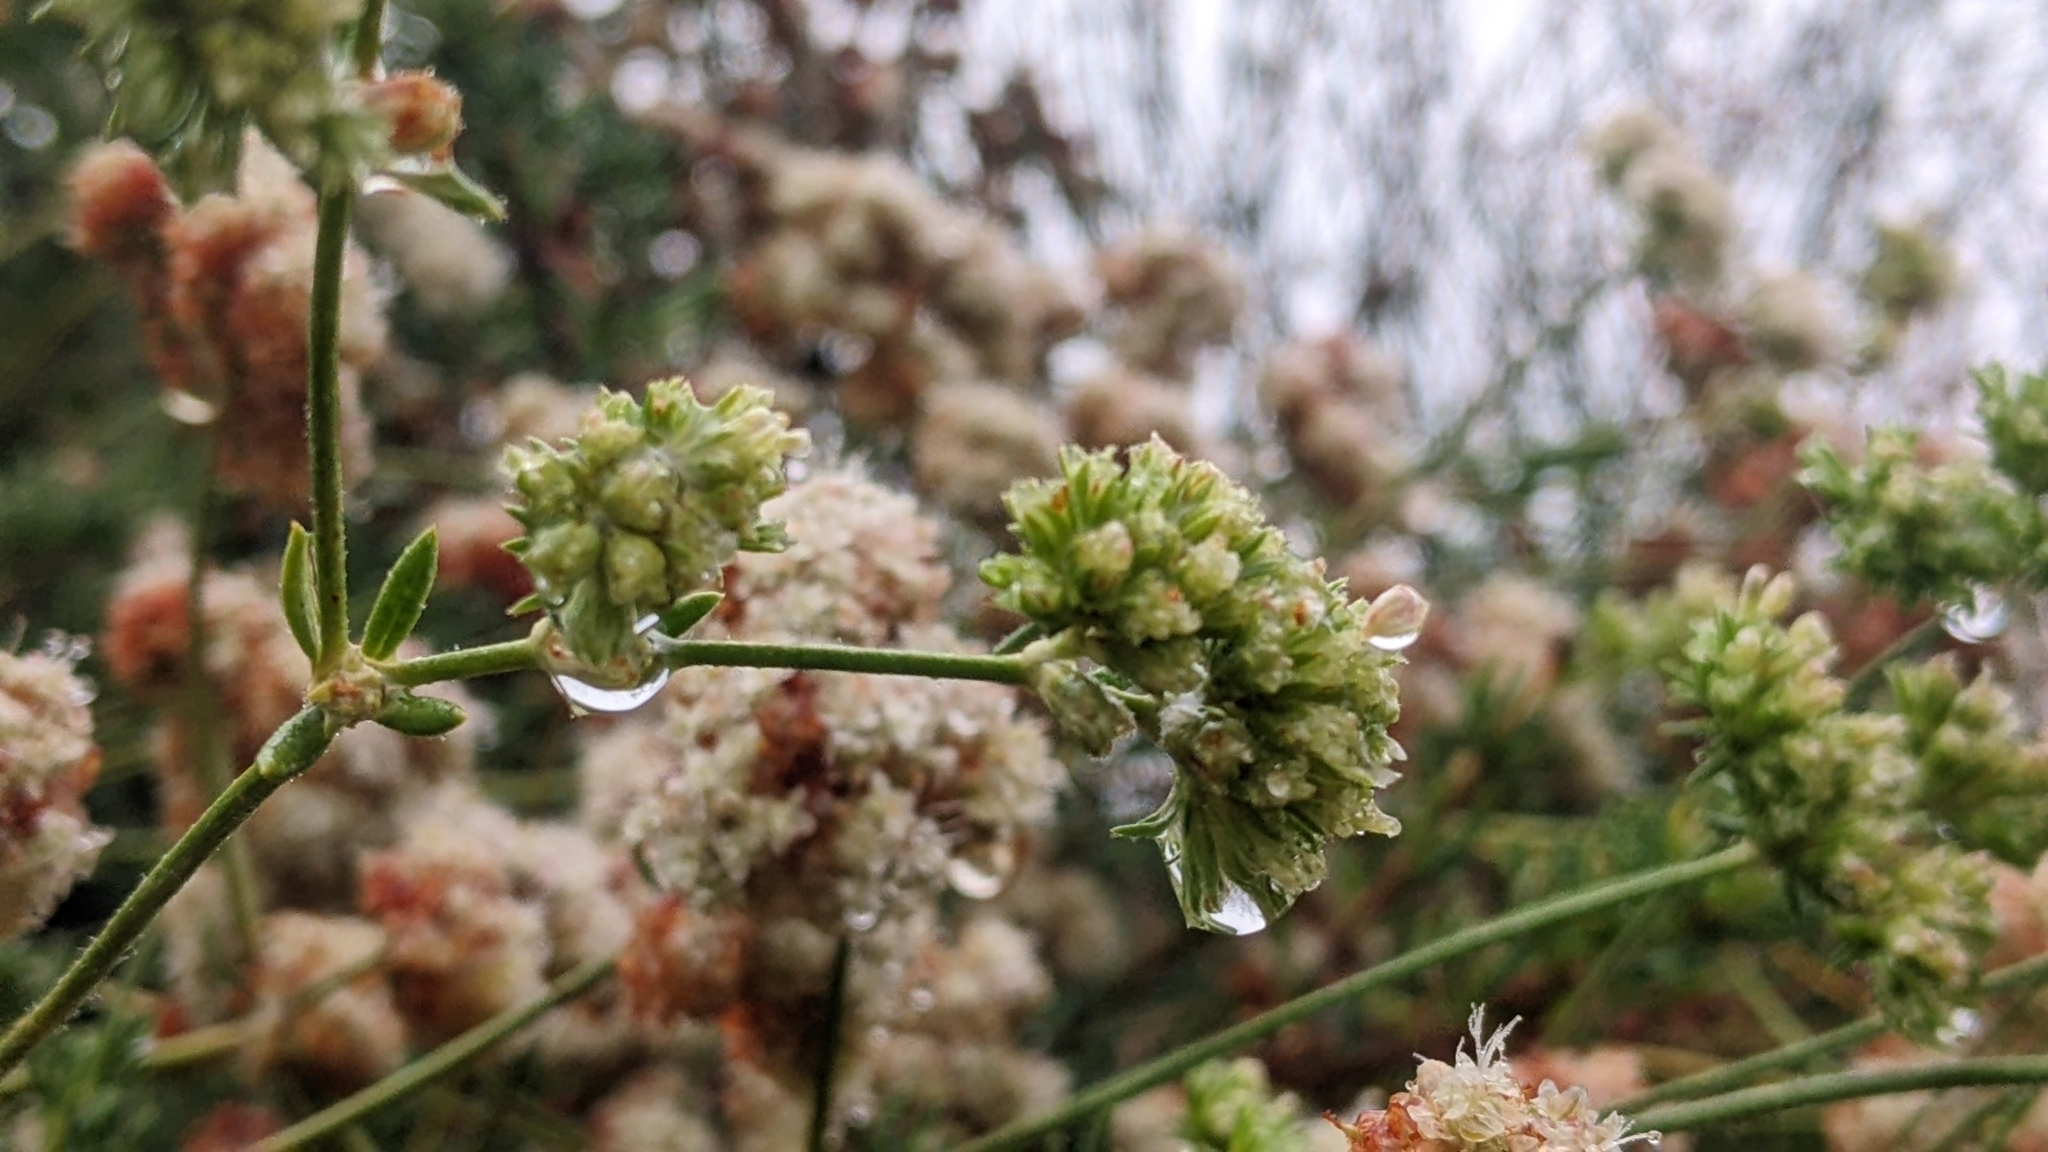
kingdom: Plantae
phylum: Tracheophyta
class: Magnoliopsida
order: Caryophyllales
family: Polygonaceae
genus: Eriogonum
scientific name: Eriogonum fasciculatum
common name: California wild buckwheat
